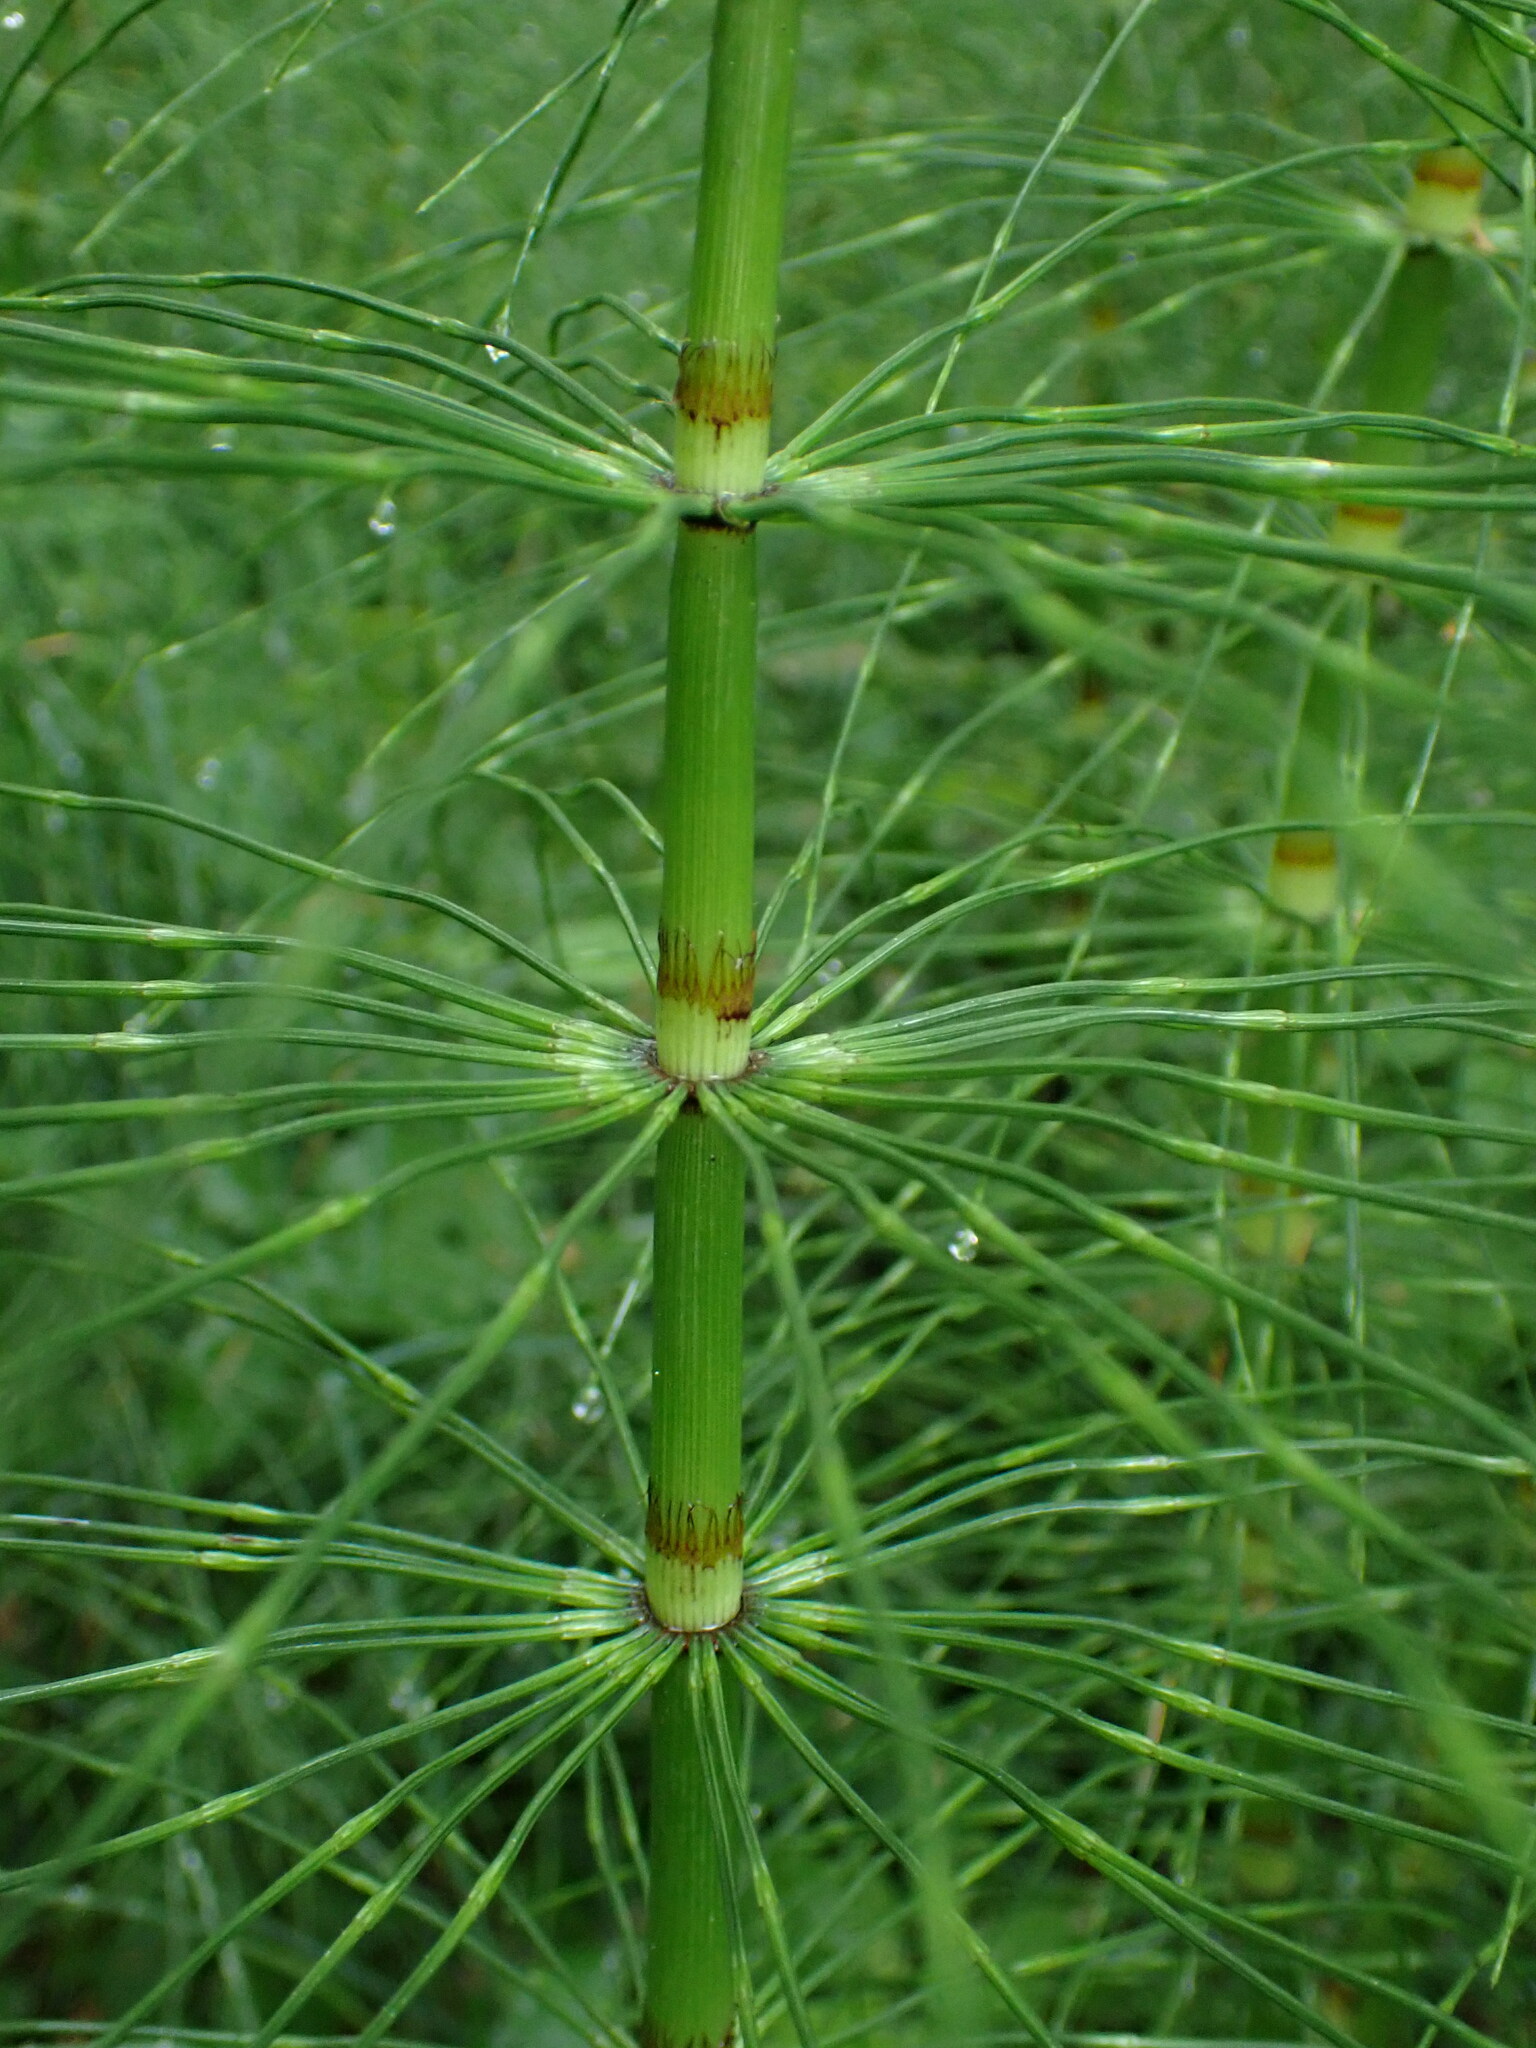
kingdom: Plantae
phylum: Tracheophyta
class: Polypodiopsida
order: Equisetales
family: Equisetaceae
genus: Equisetum
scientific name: Equisetum braunii
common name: Braun's horsetail
